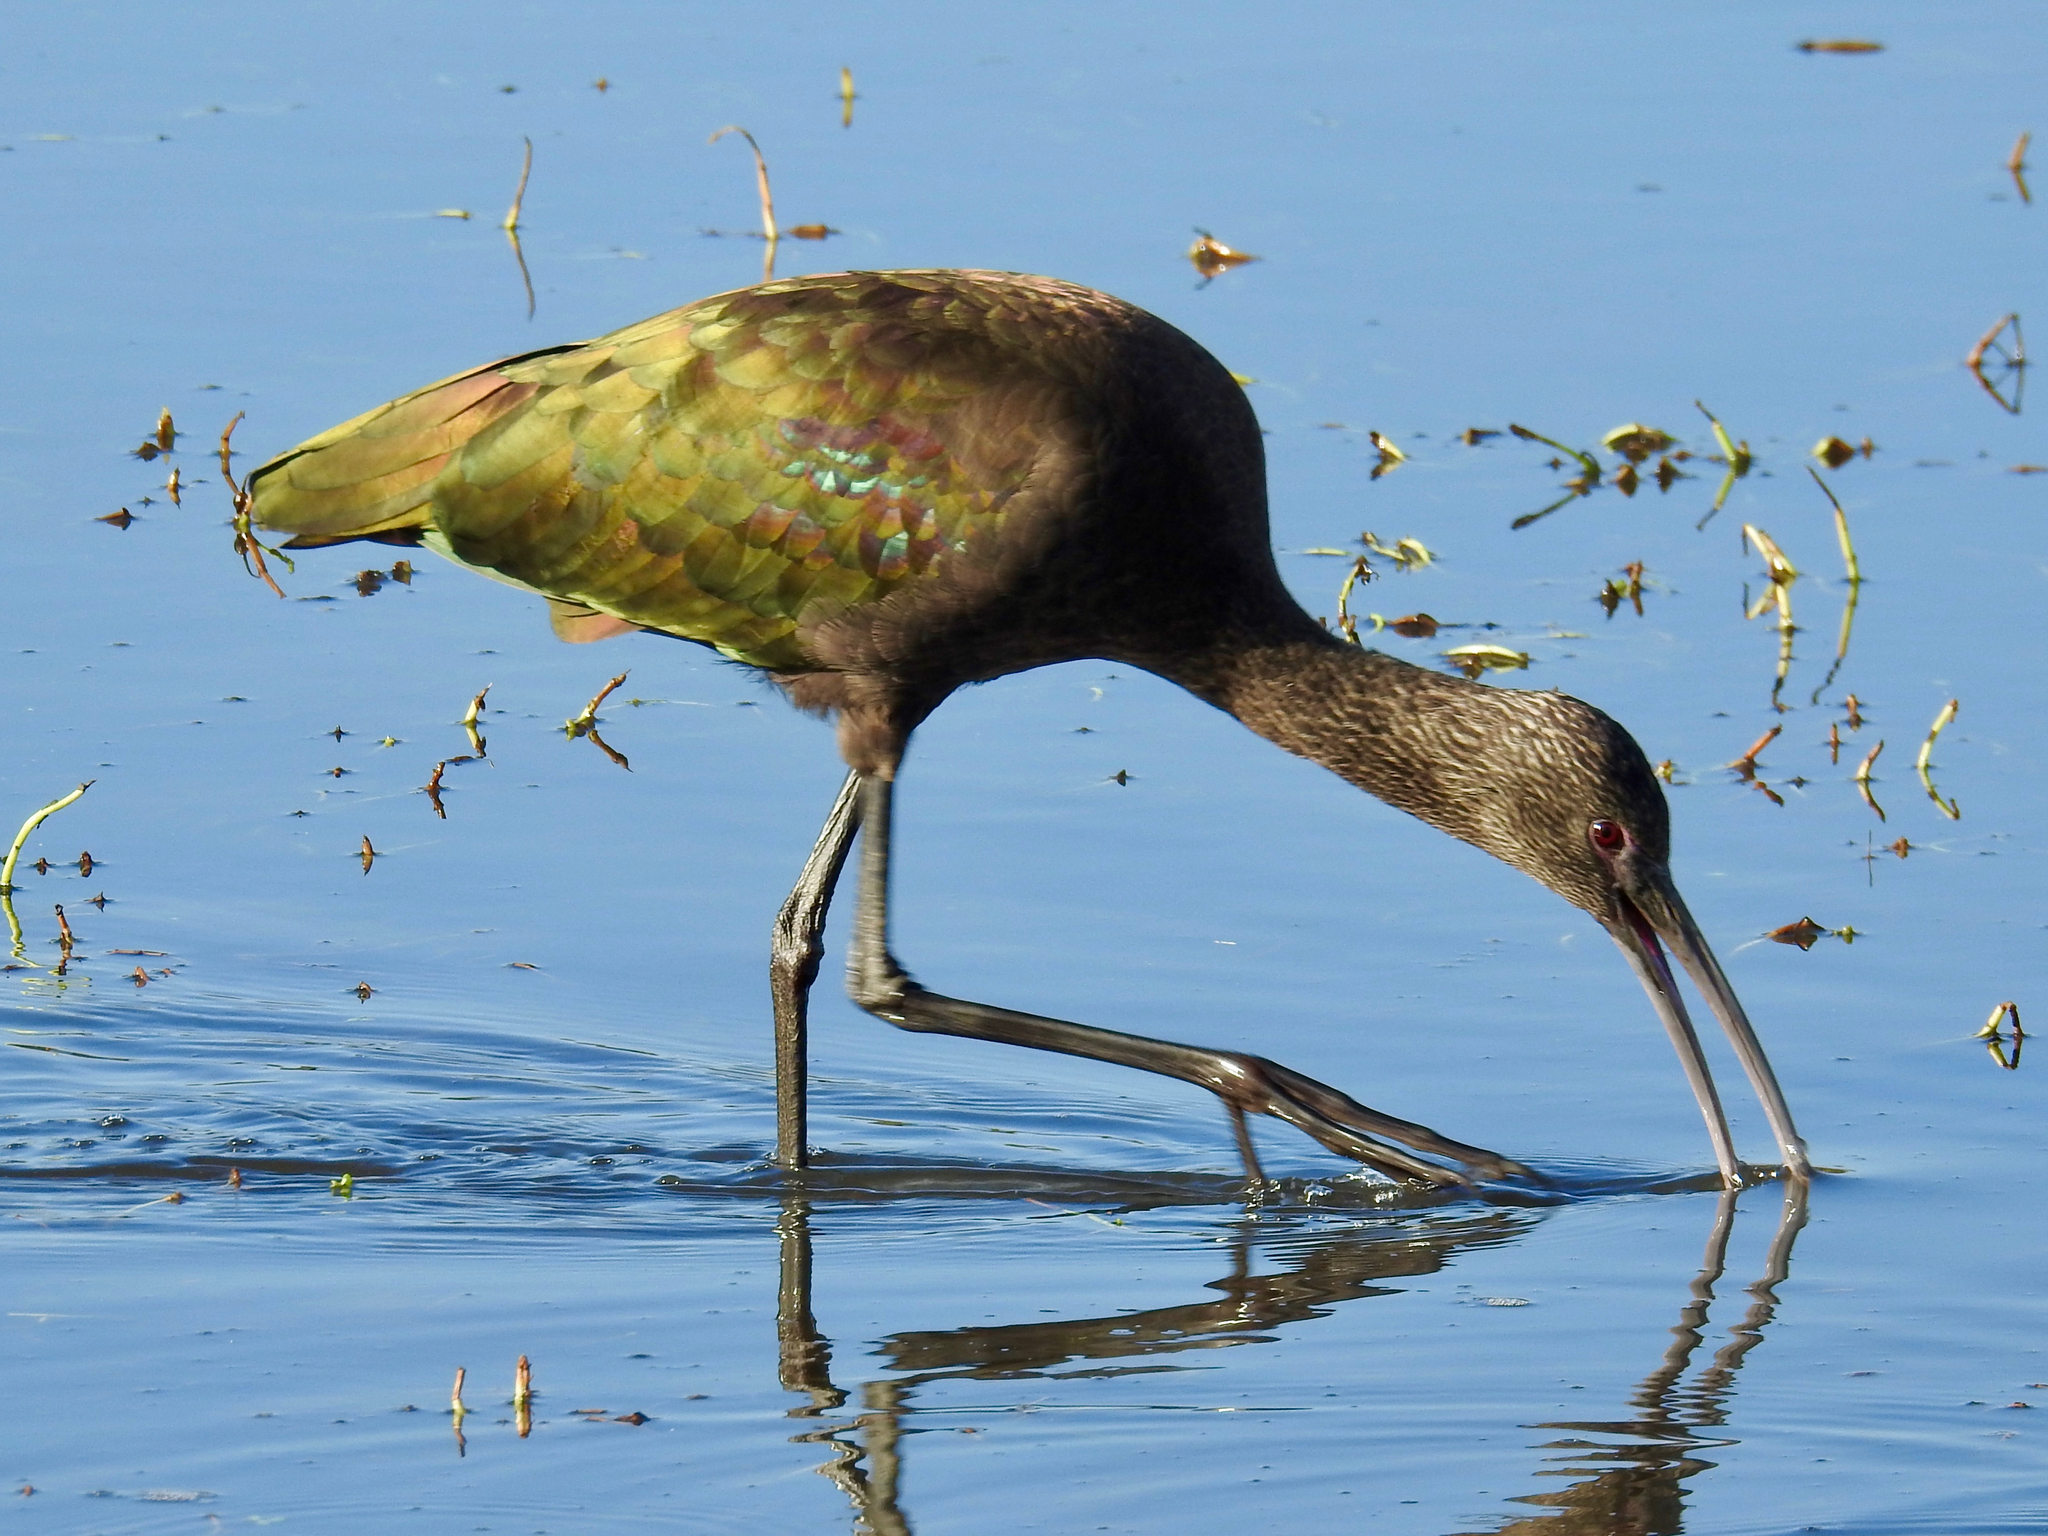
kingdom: Animalia
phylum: Chordata
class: Aves
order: Pelecaniformes
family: Threskiornithidae
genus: Plegadis
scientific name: Plegadis chihi
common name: White-faced ibis
